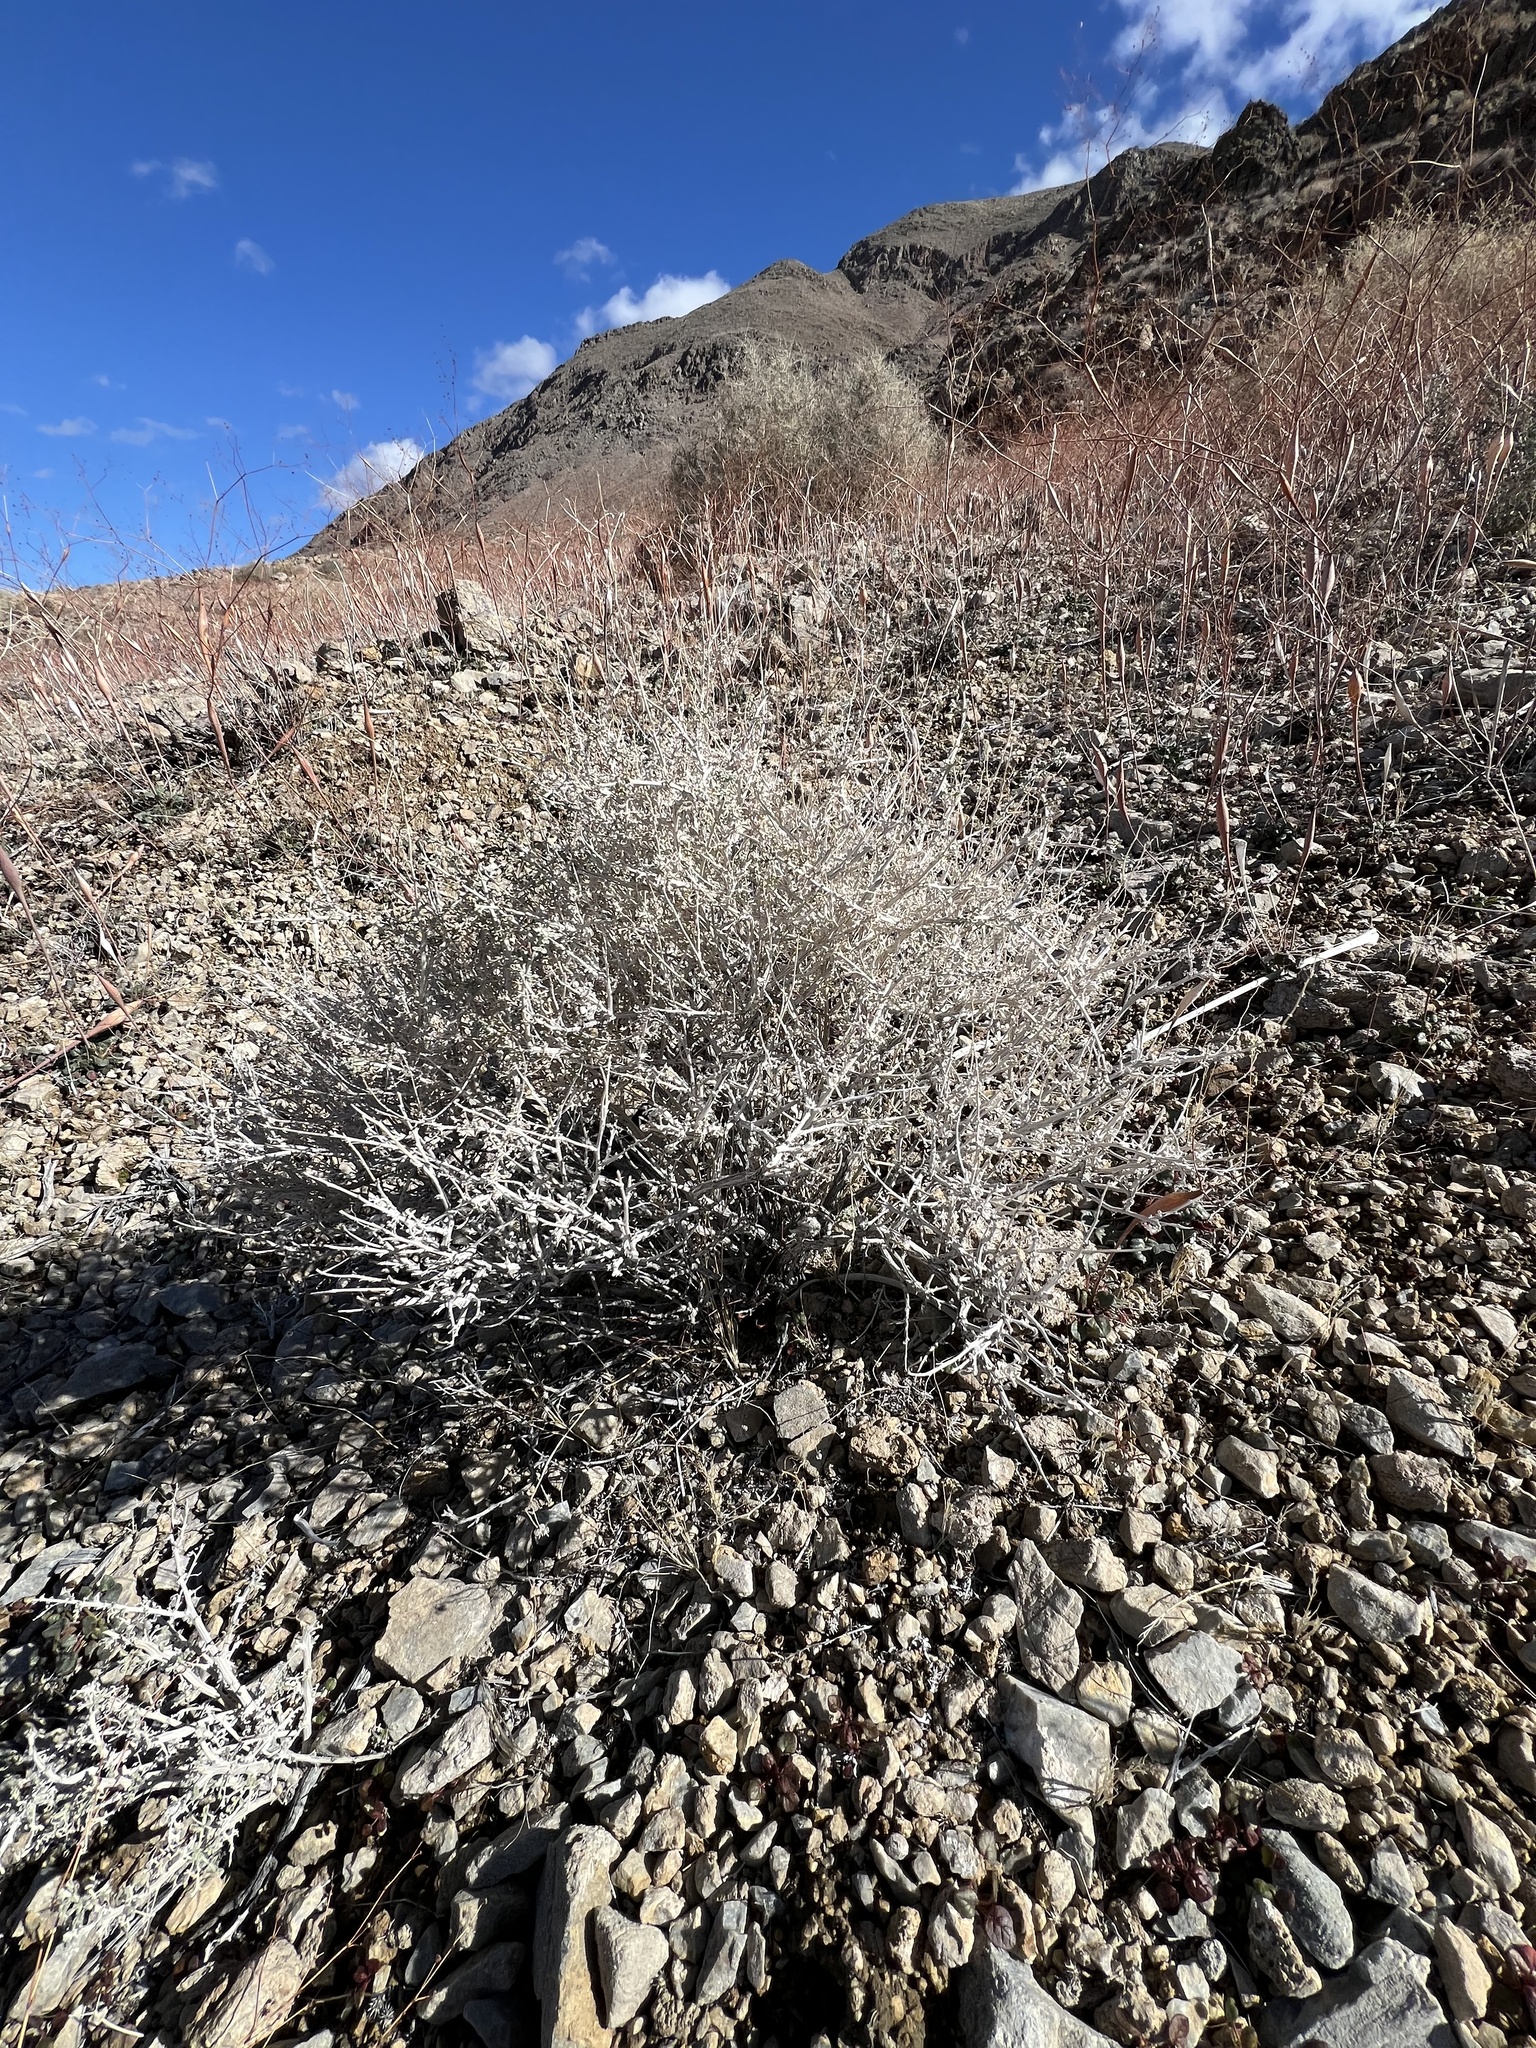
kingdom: Plantae
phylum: Tracheophyta
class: Magnoliopsida
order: Asterales
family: Asteraceae
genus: Ambrosia
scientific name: Ambrosia dumosa
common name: Bur-sage
